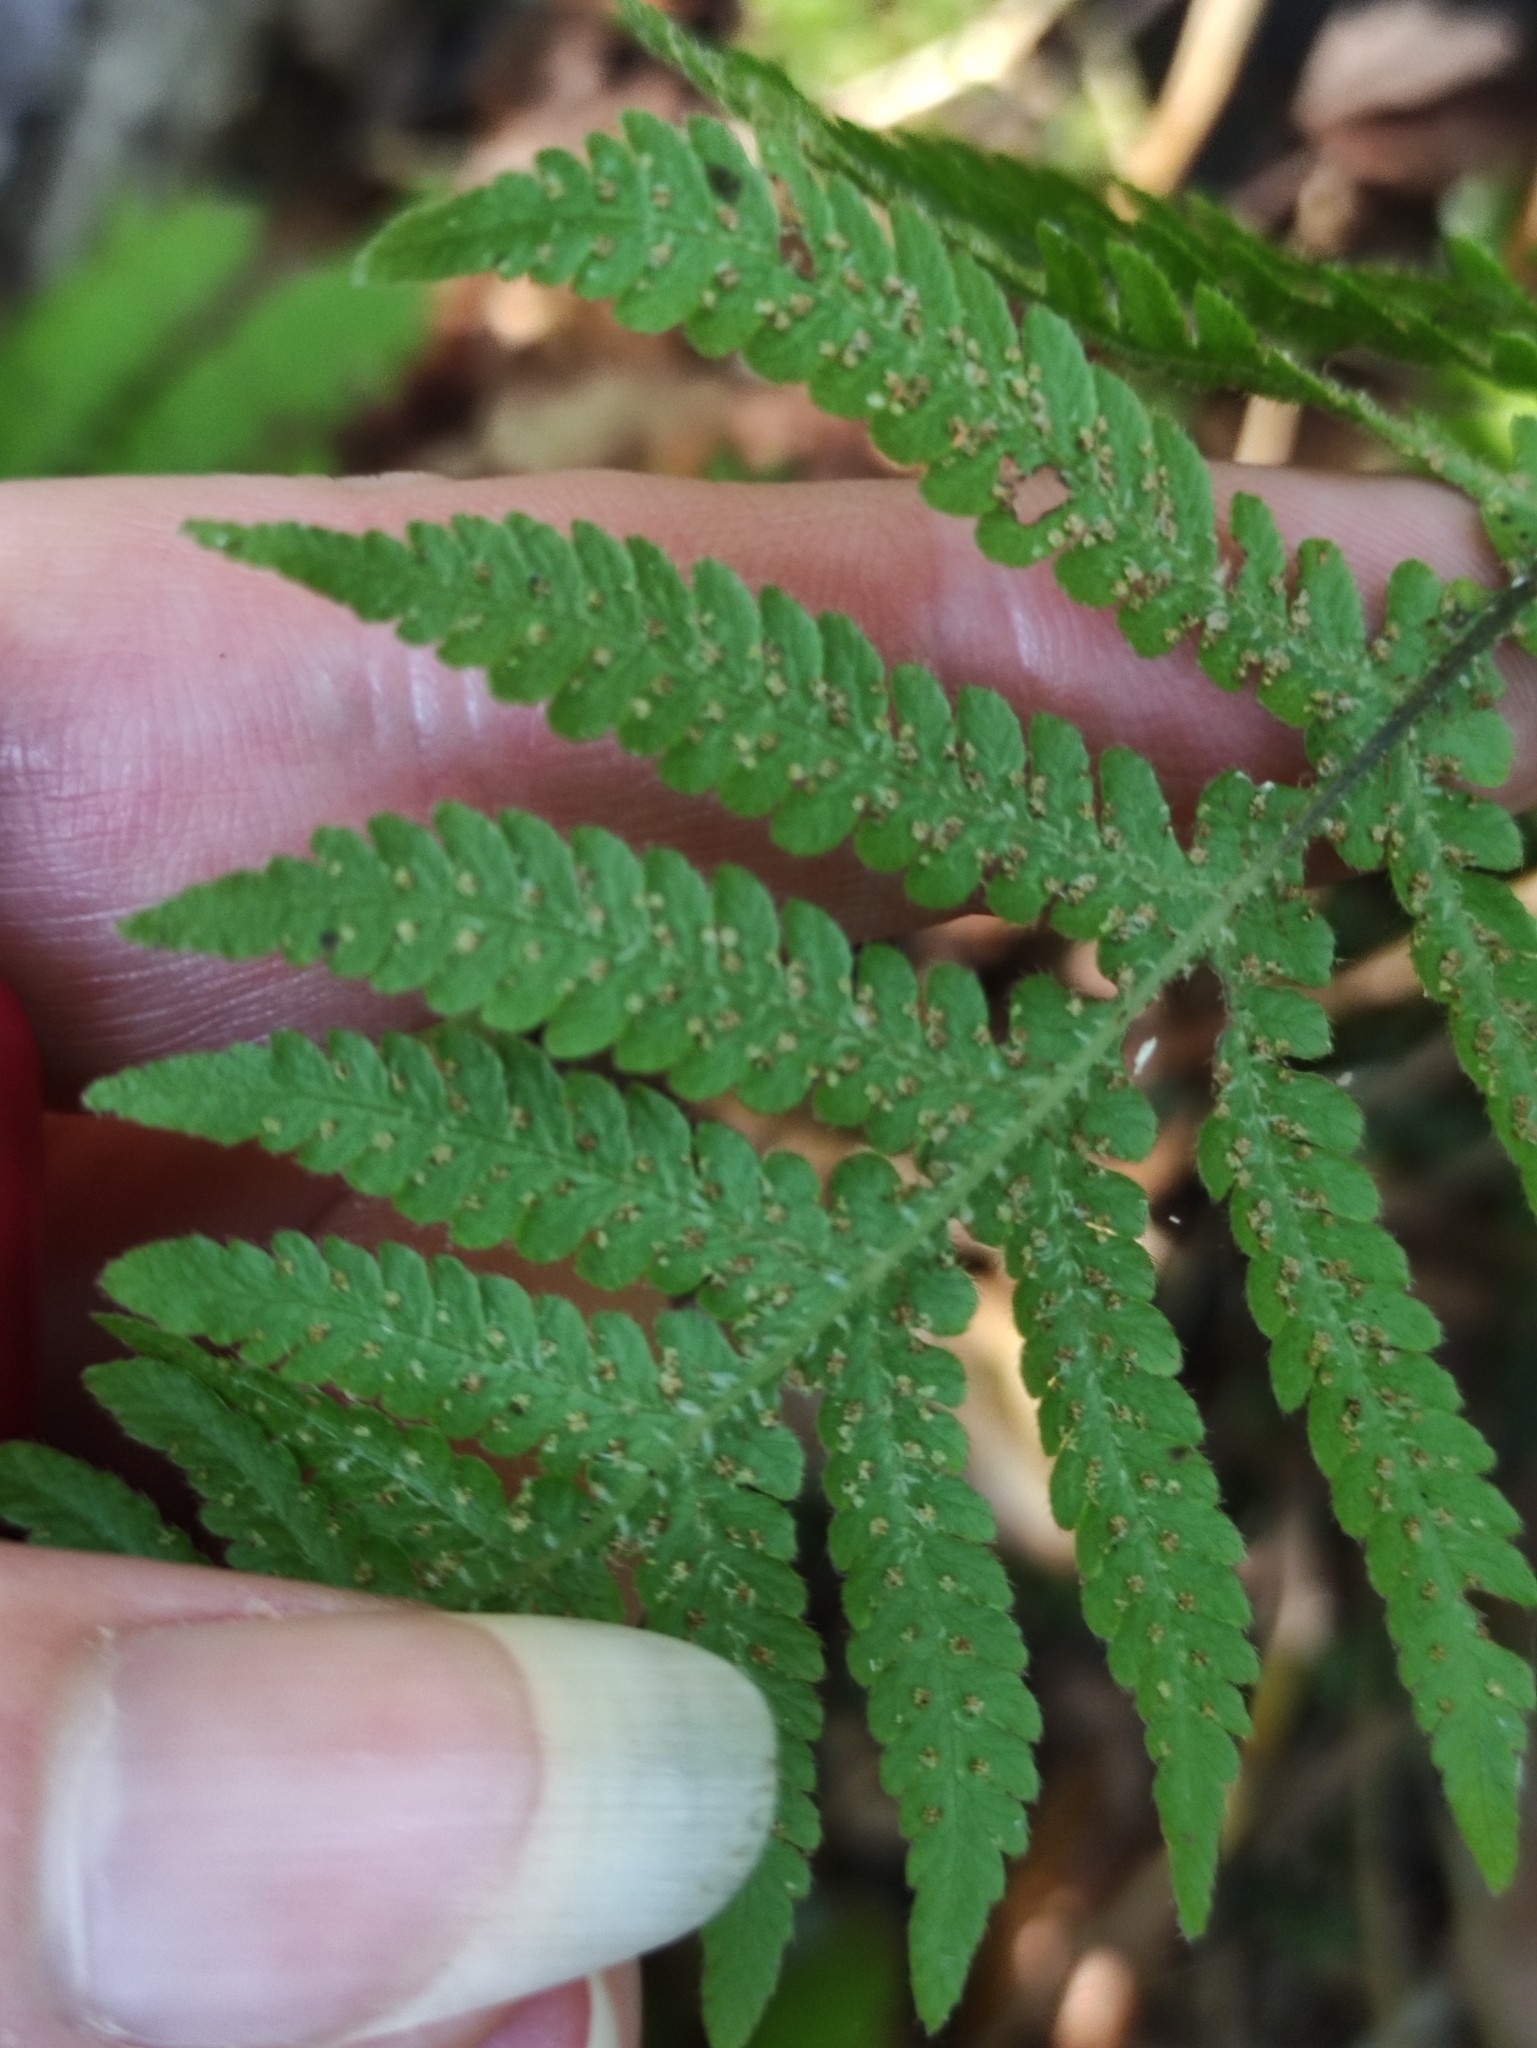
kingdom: Plantae
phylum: Tracheophyta
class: Polypodiopsida
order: Polypodiales
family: Thelypteridaceae
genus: Phegopteris
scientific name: Phegopteris connectilis
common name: Beech fern
